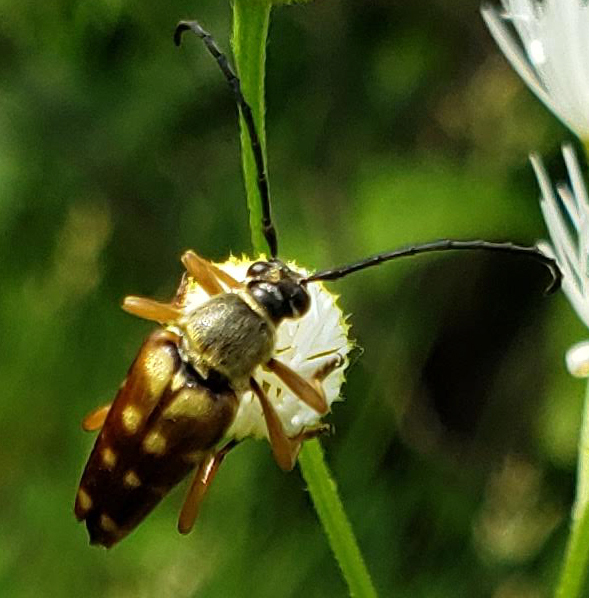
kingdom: Animalia
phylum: Arthropoda
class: Insecta
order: Coleoptera
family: Cerambycidae
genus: Typocerus
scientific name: Typocerus velutinus
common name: Banded longhorn beetle
